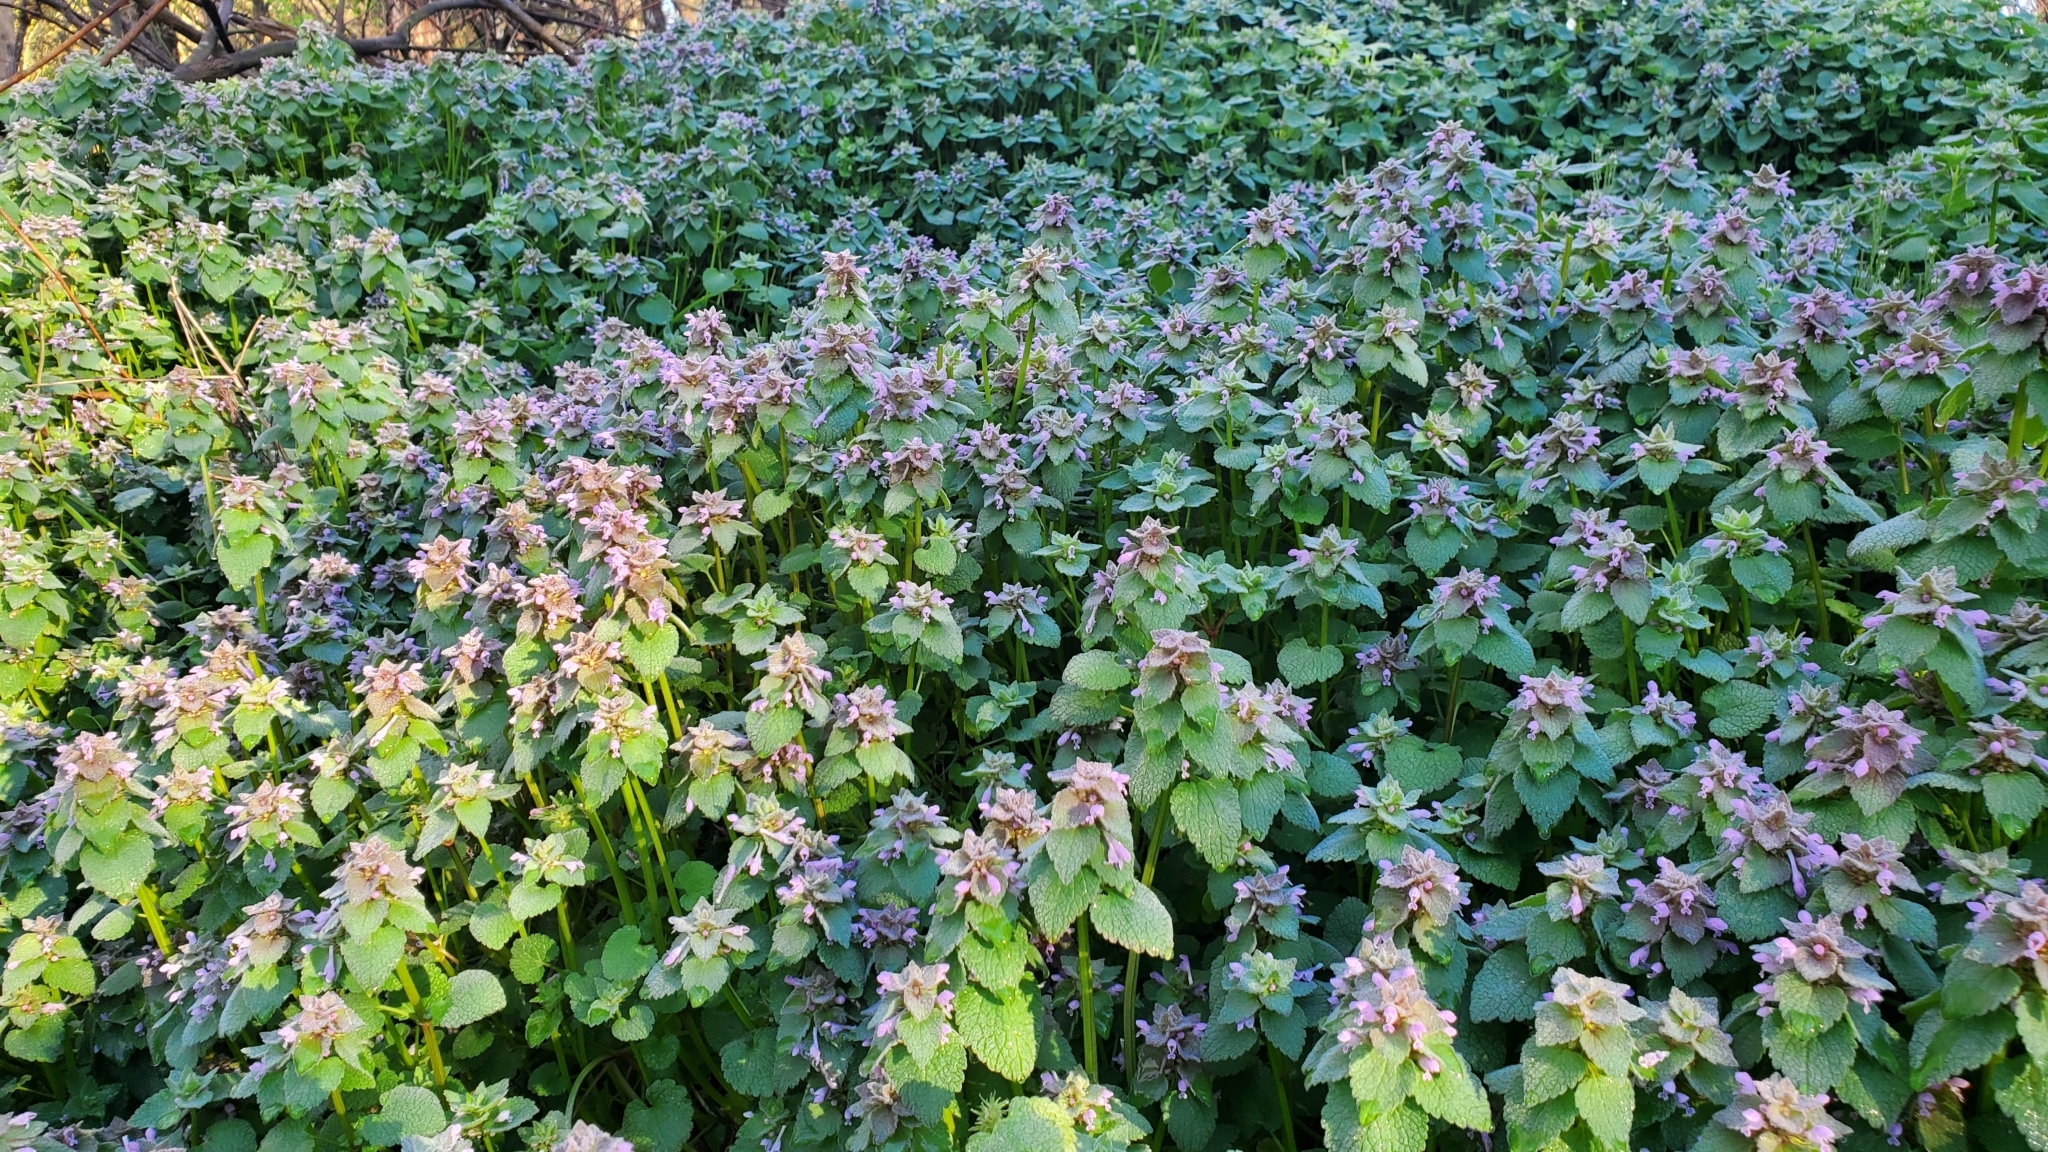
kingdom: Plantae
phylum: Tracheophyta
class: Magnoliopsida
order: Lamiales
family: Lamiaceae
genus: Lamium
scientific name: Lamium purpureum
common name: Red dead-nettle
